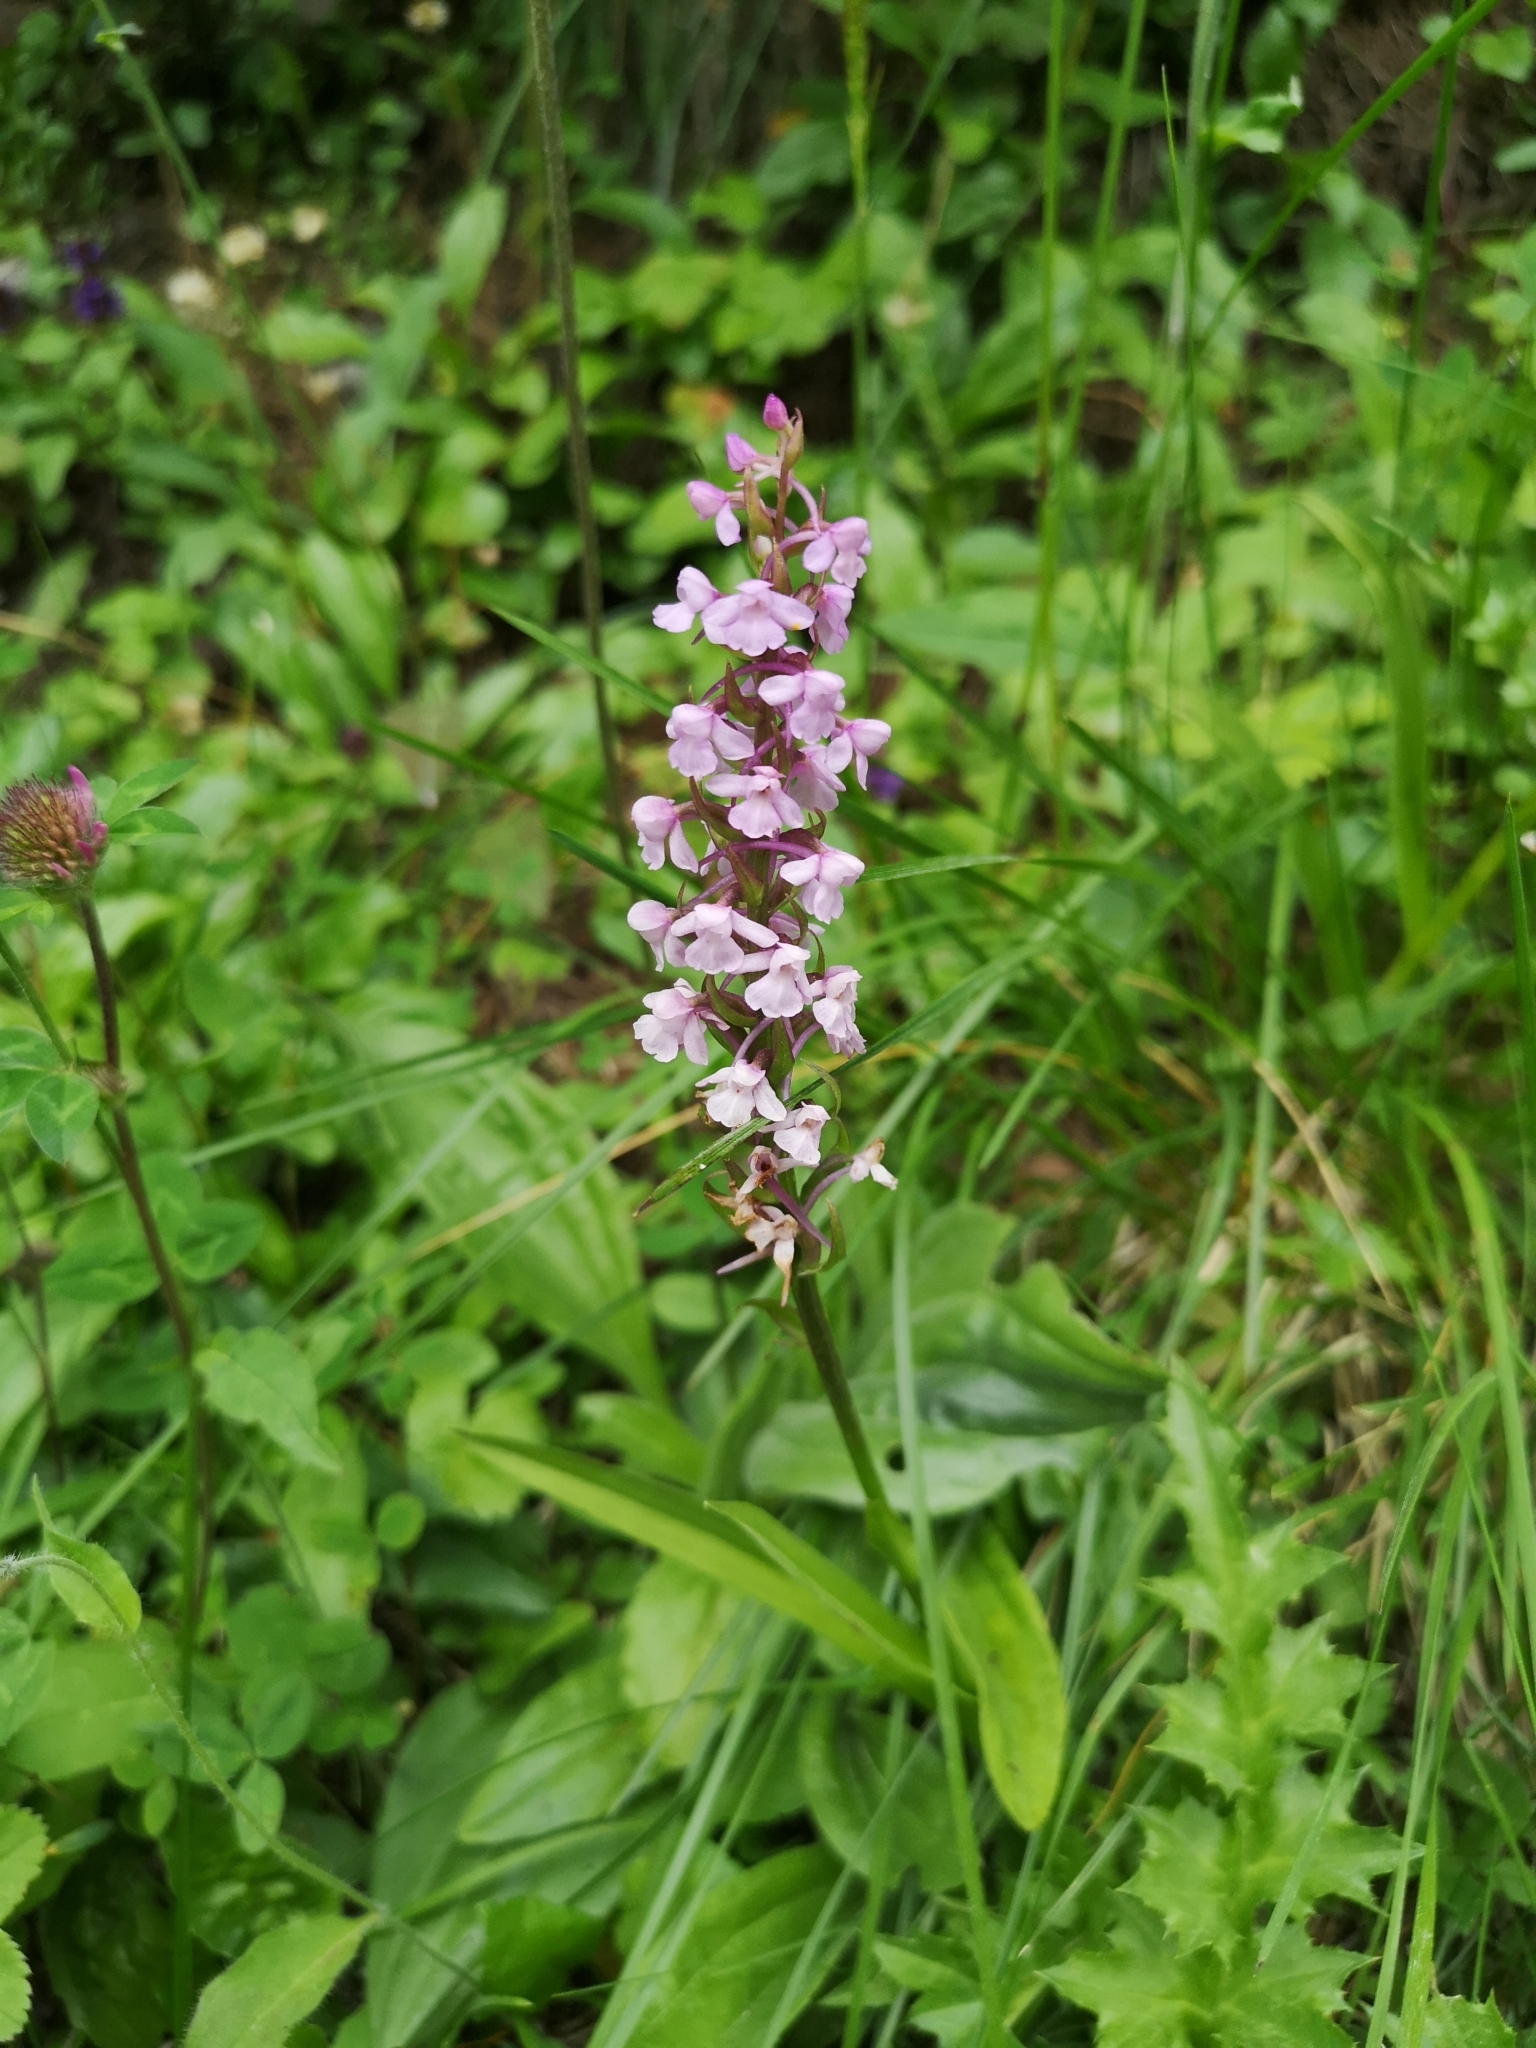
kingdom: Plantae
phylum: Tracheophyta
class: Liliopsida
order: Asparagales
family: Orchidaceae
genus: Gymnadenia
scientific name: Gymnadenia conopsea
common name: Fragrant orchid
